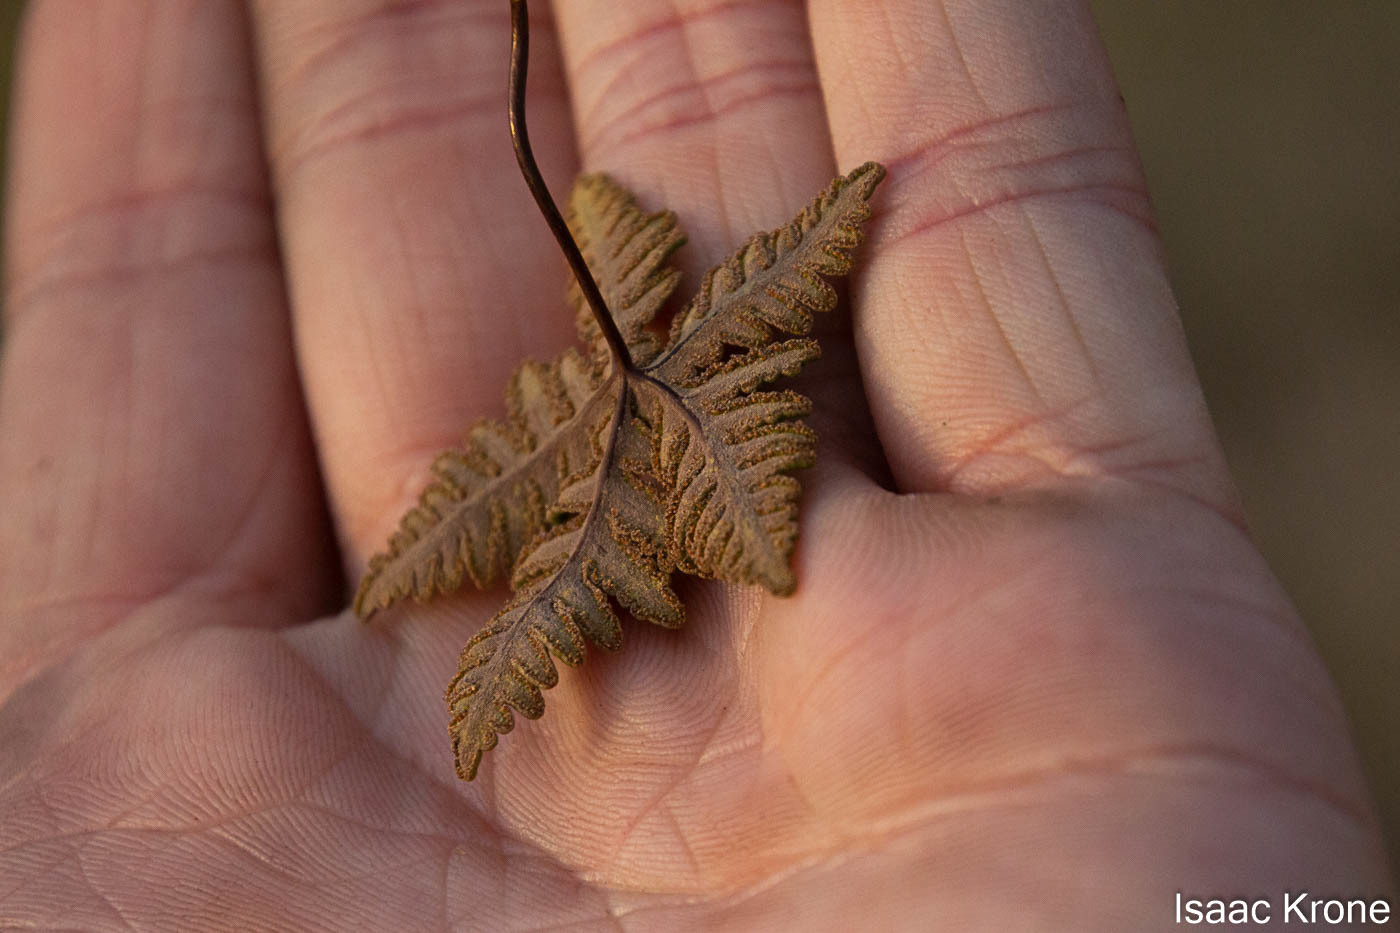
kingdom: Plantae
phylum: Tracheophyta
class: Polypodiopsida
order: Polypodiales
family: Pteridaceae
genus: Notholaena
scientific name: Notholaena standleyi
